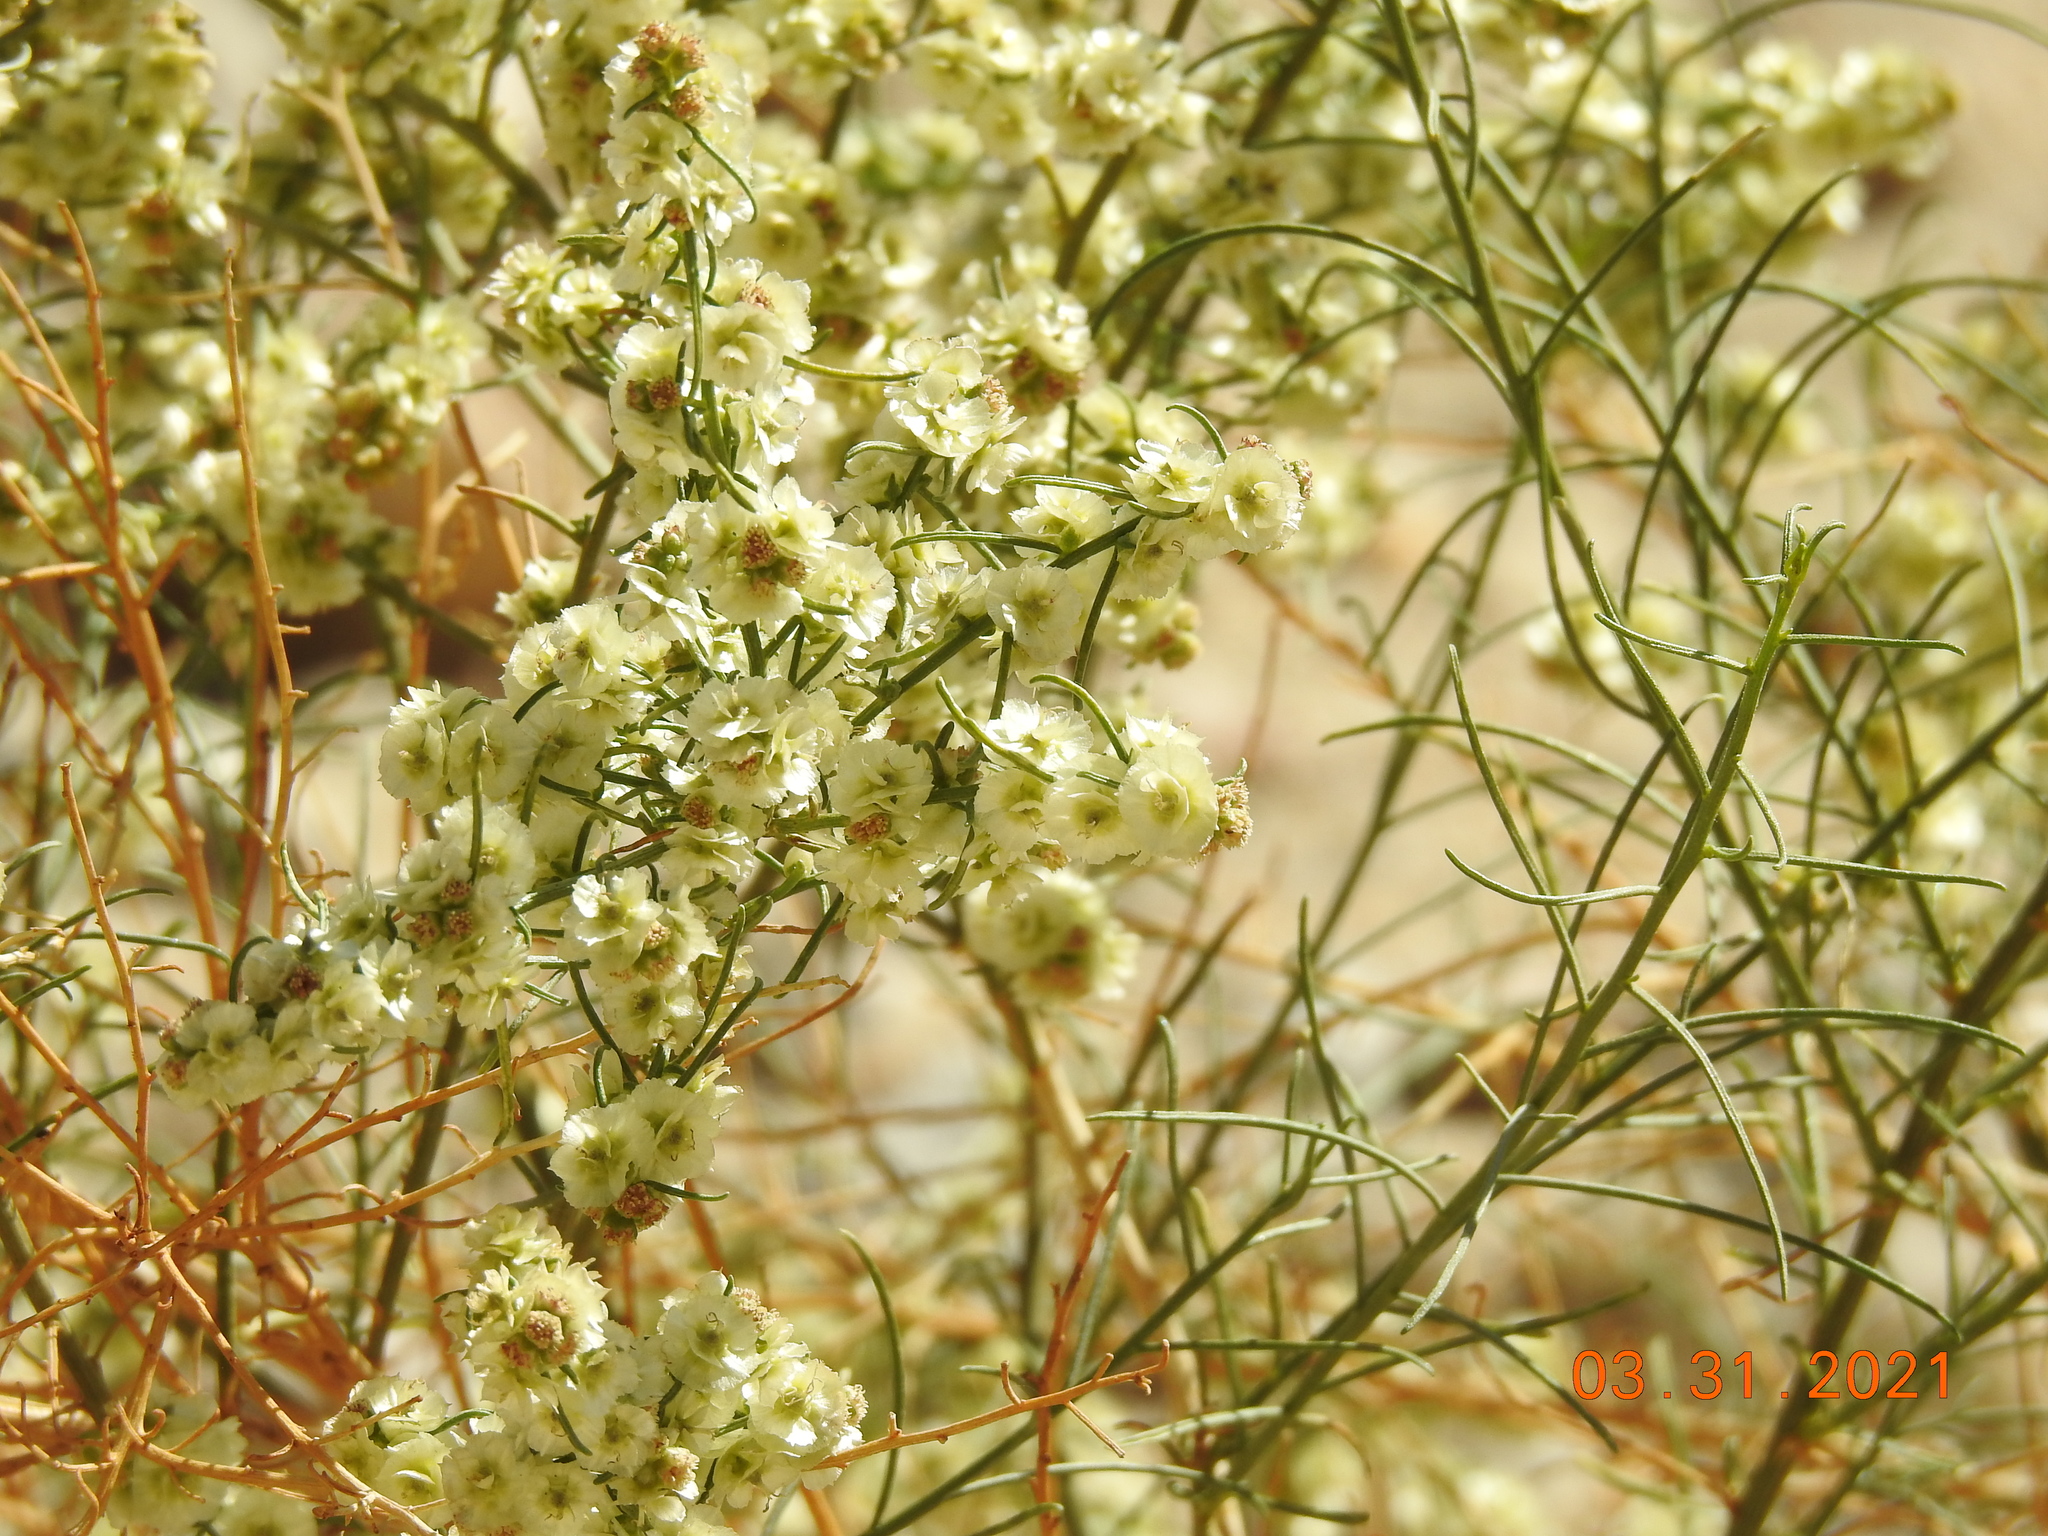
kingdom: Plantae
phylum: Tracheophyta
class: Magnoliopsida
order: Asterales
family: Asteraceae
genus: Ambrosia
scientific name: Ambrosia salsola
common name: Burrobrush
